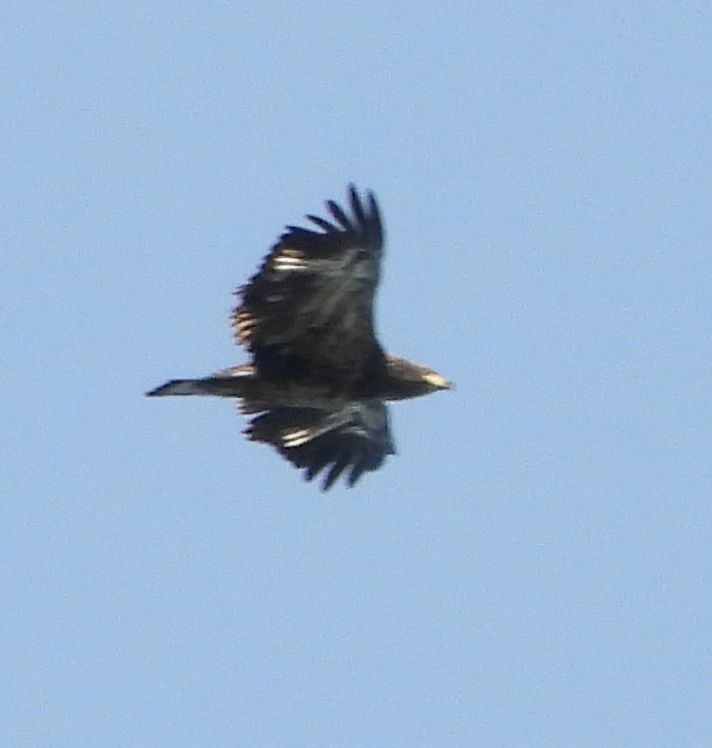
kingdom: Animalia
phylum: Chordata
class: Aves
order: Accipitriformes
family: Accipitridae
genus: Haliaeetus
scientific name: Haliaeetus leucocephalus
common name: Bald eagle
